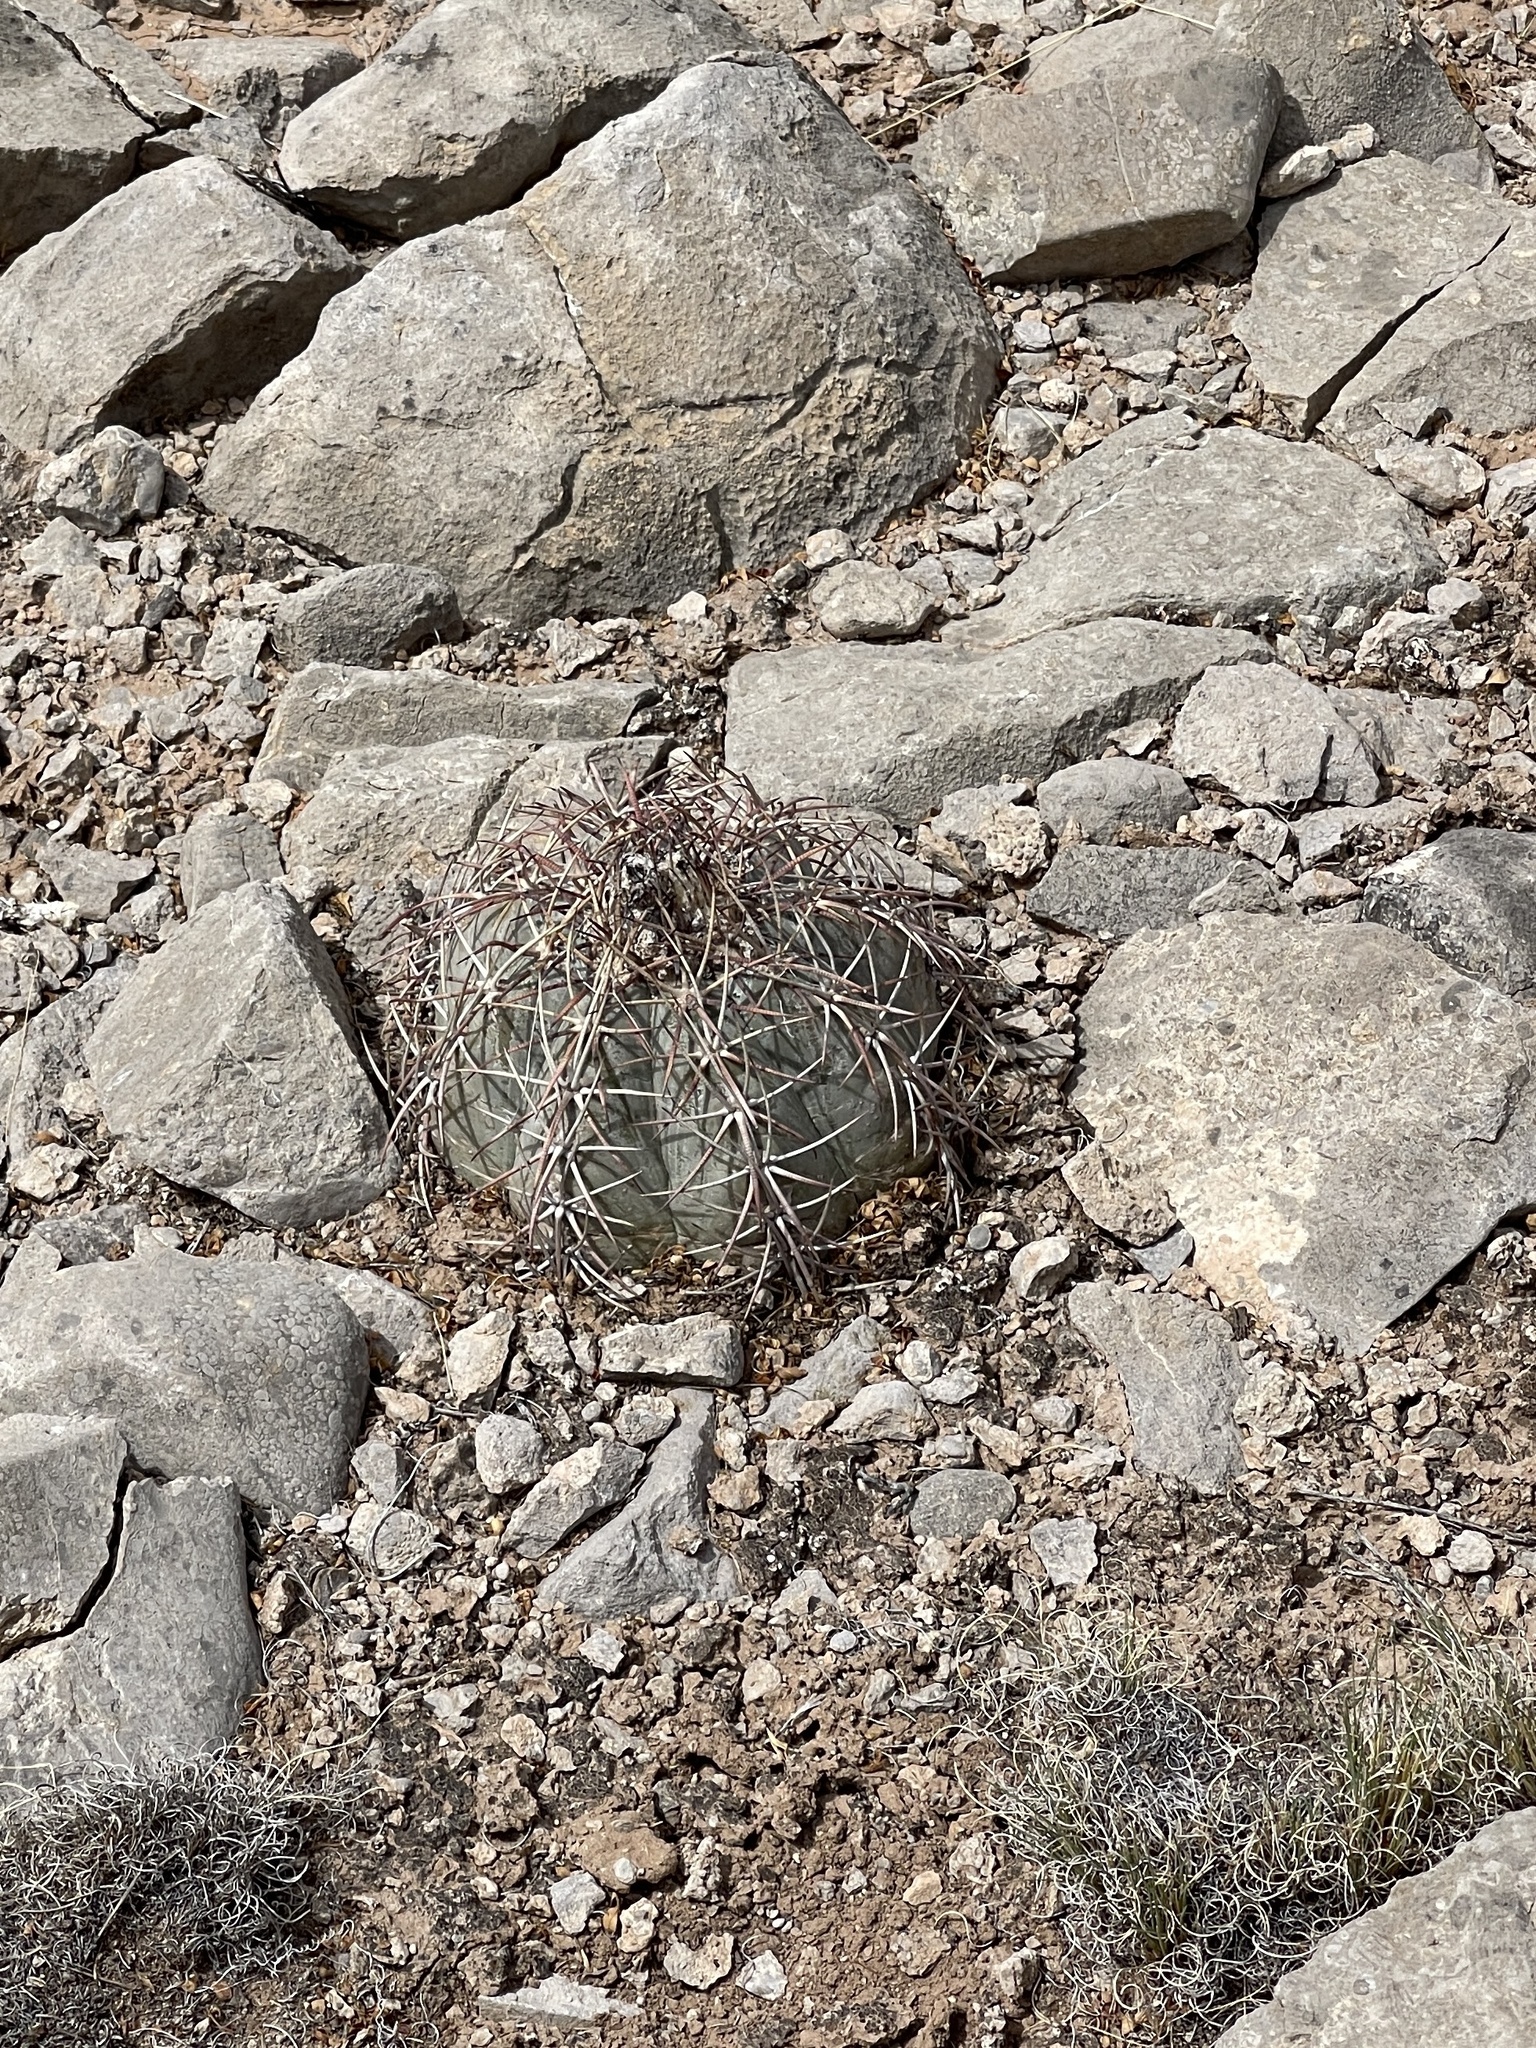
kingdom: Plantae
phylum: Tracheophyta
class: Magnoliopsida
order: Caryophyllales
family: Cactaceae
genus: Echinocactus
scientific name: Echinocactus horizonthalonius
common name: Devilshead
